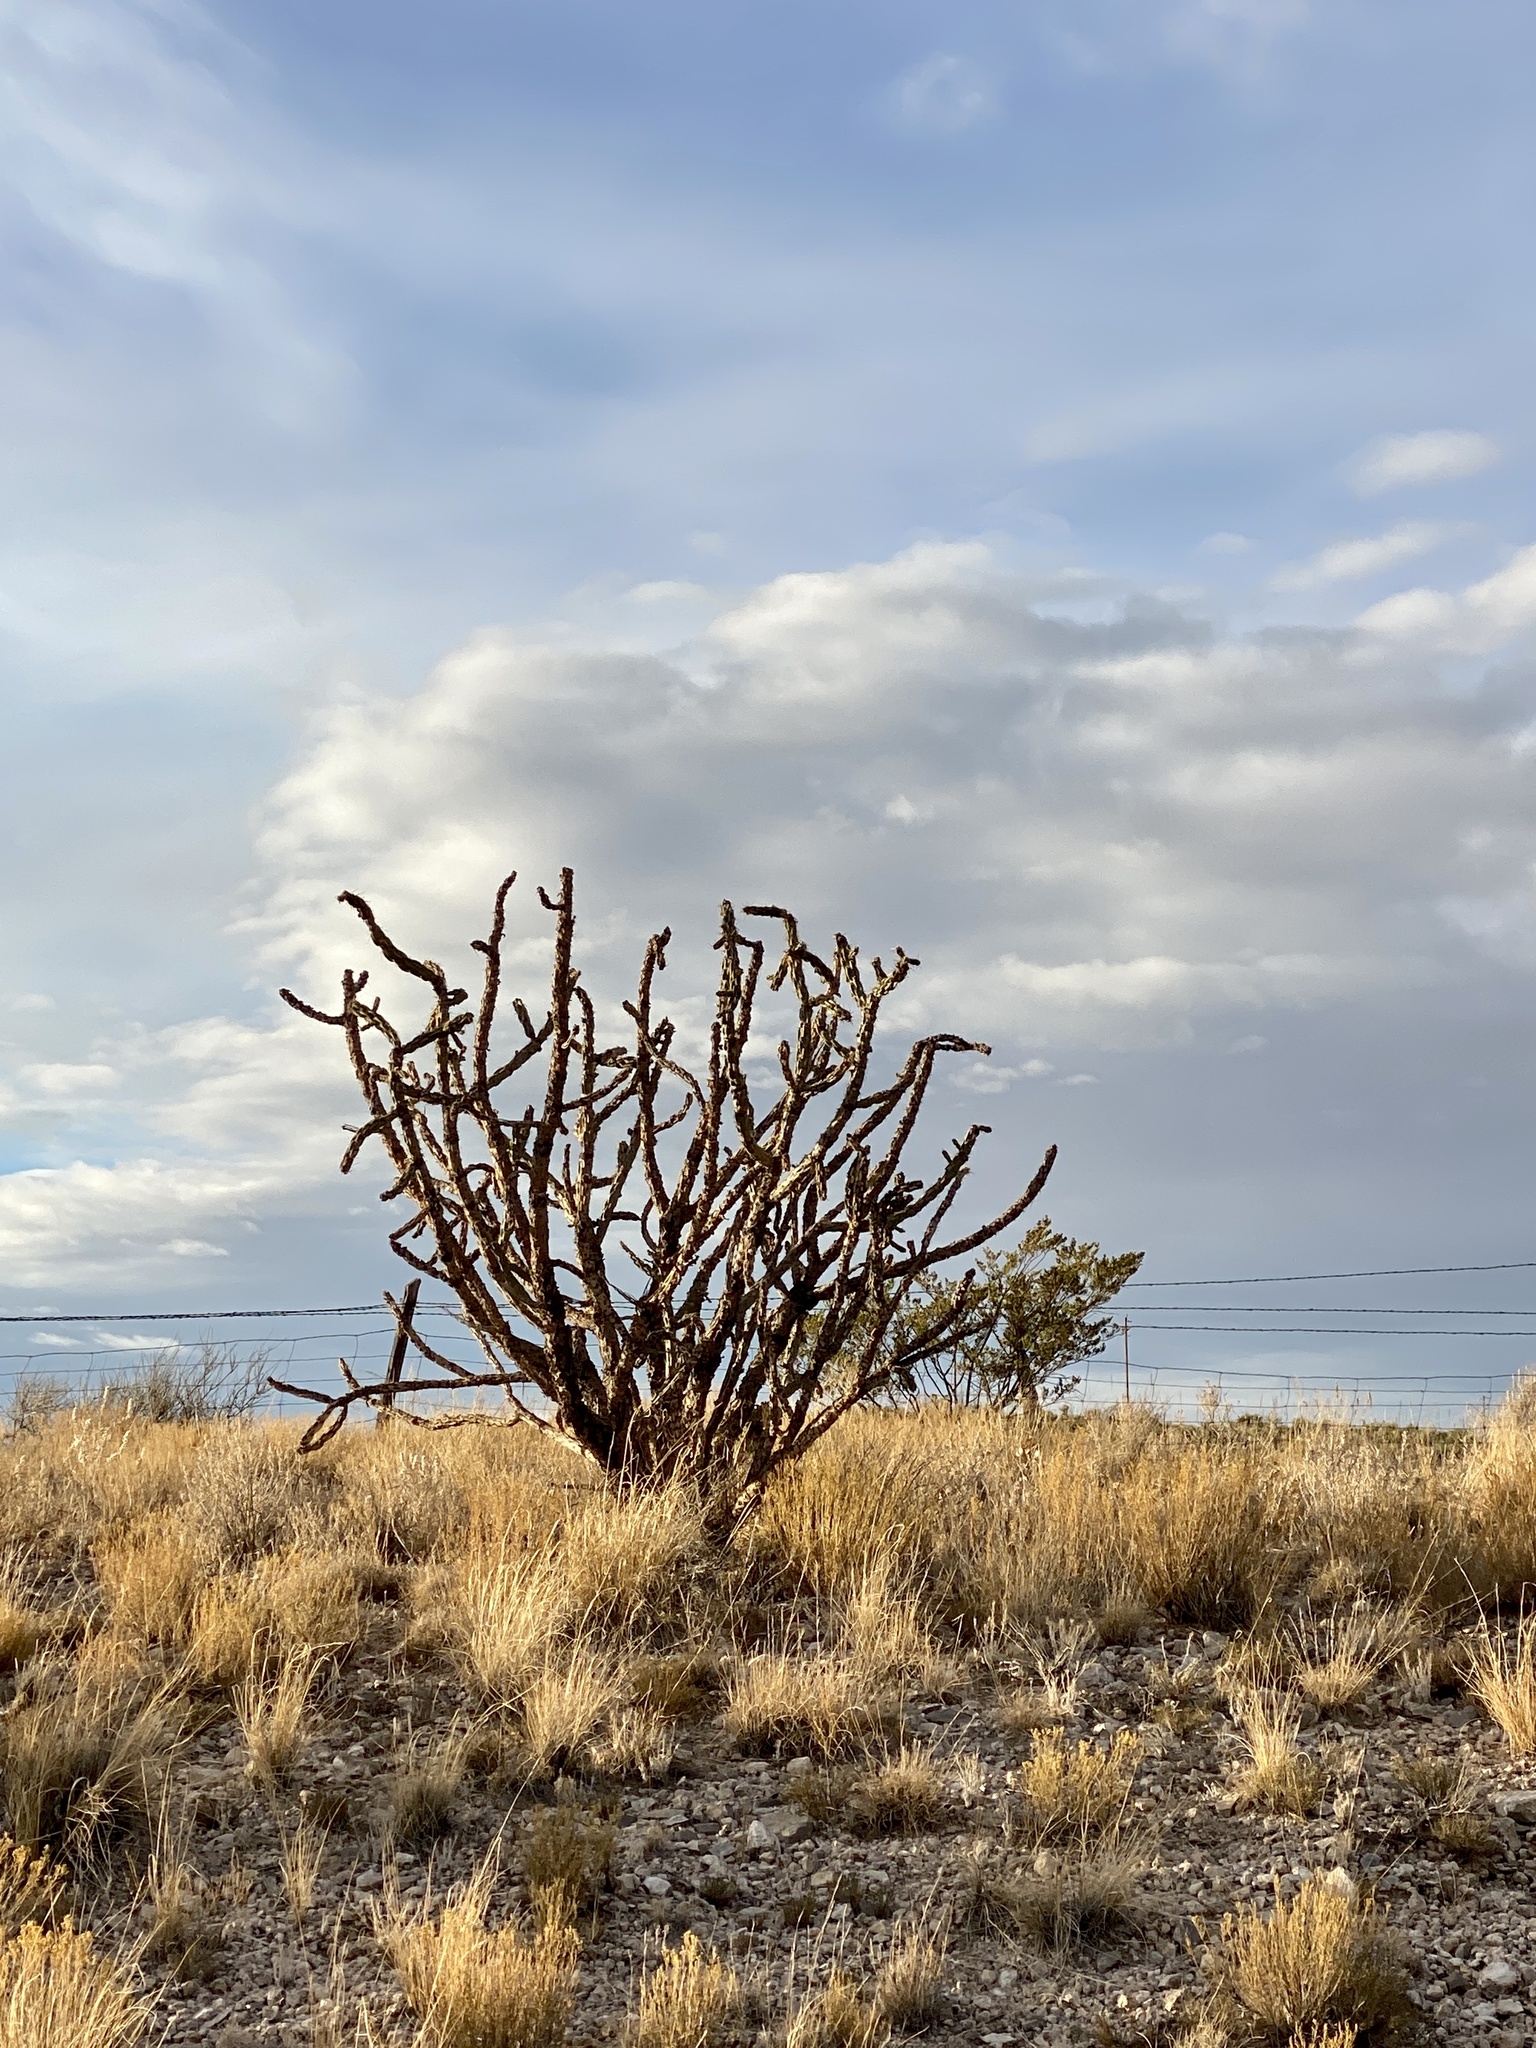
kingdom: Plantae
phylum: Tracheophyta
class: Magnoliopsida
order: Caryophyllales
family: Cactaceae
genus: Cylindropuntia
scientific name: Cylindropuntia imbricata
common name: Candelabrum cactus
